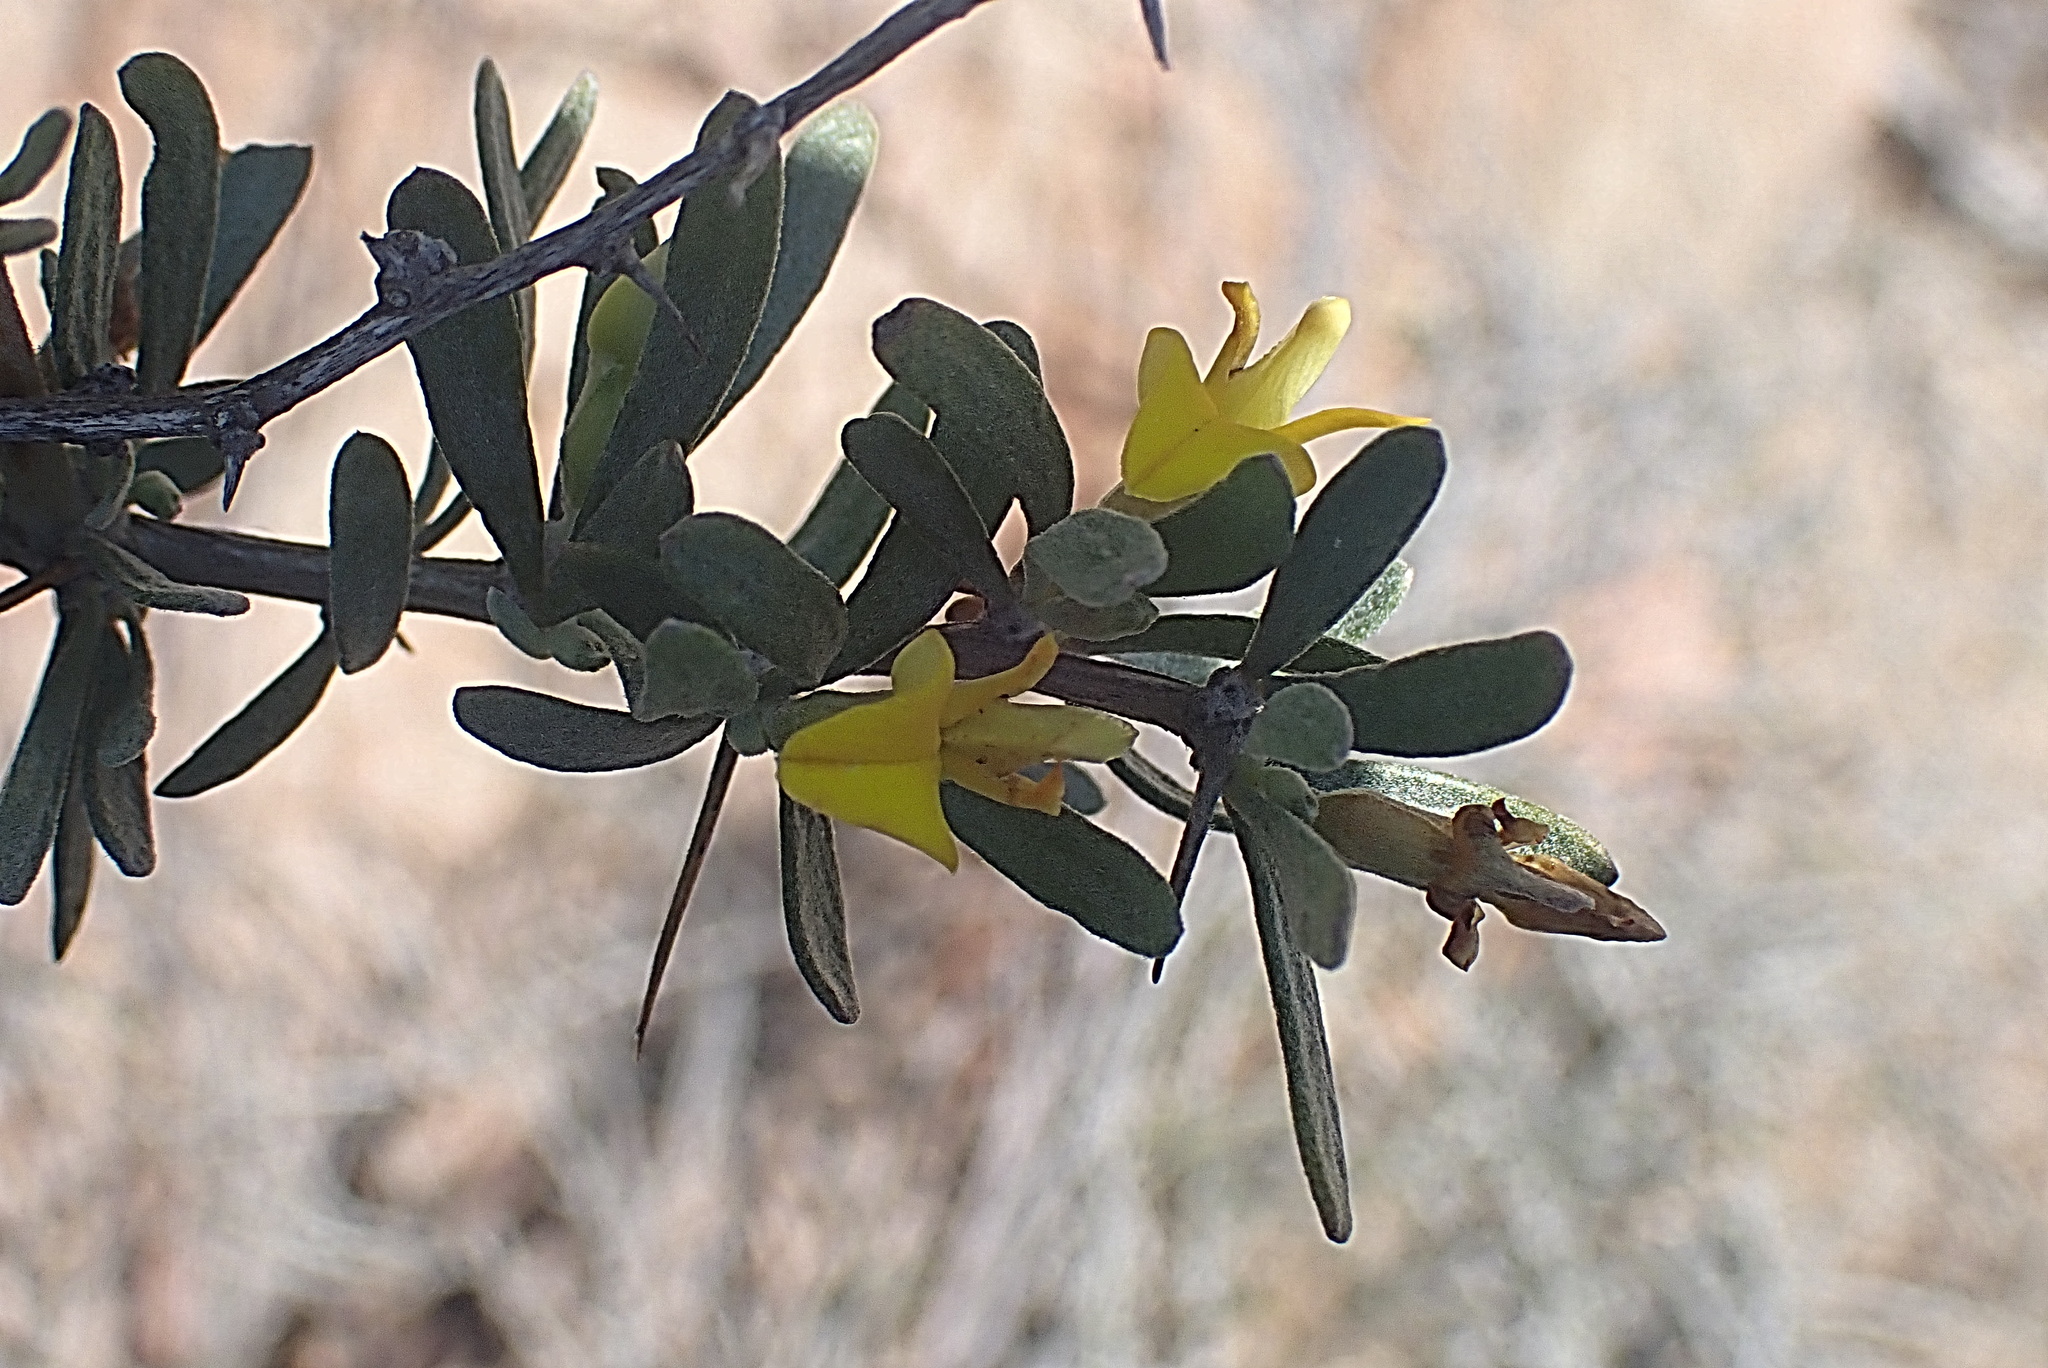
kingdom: Plantae
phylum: Tracheophyta
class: Magnoliopsida
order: Fabales
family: Fabaceae
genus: Aspalathus
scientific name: Aspalathus spinosa
